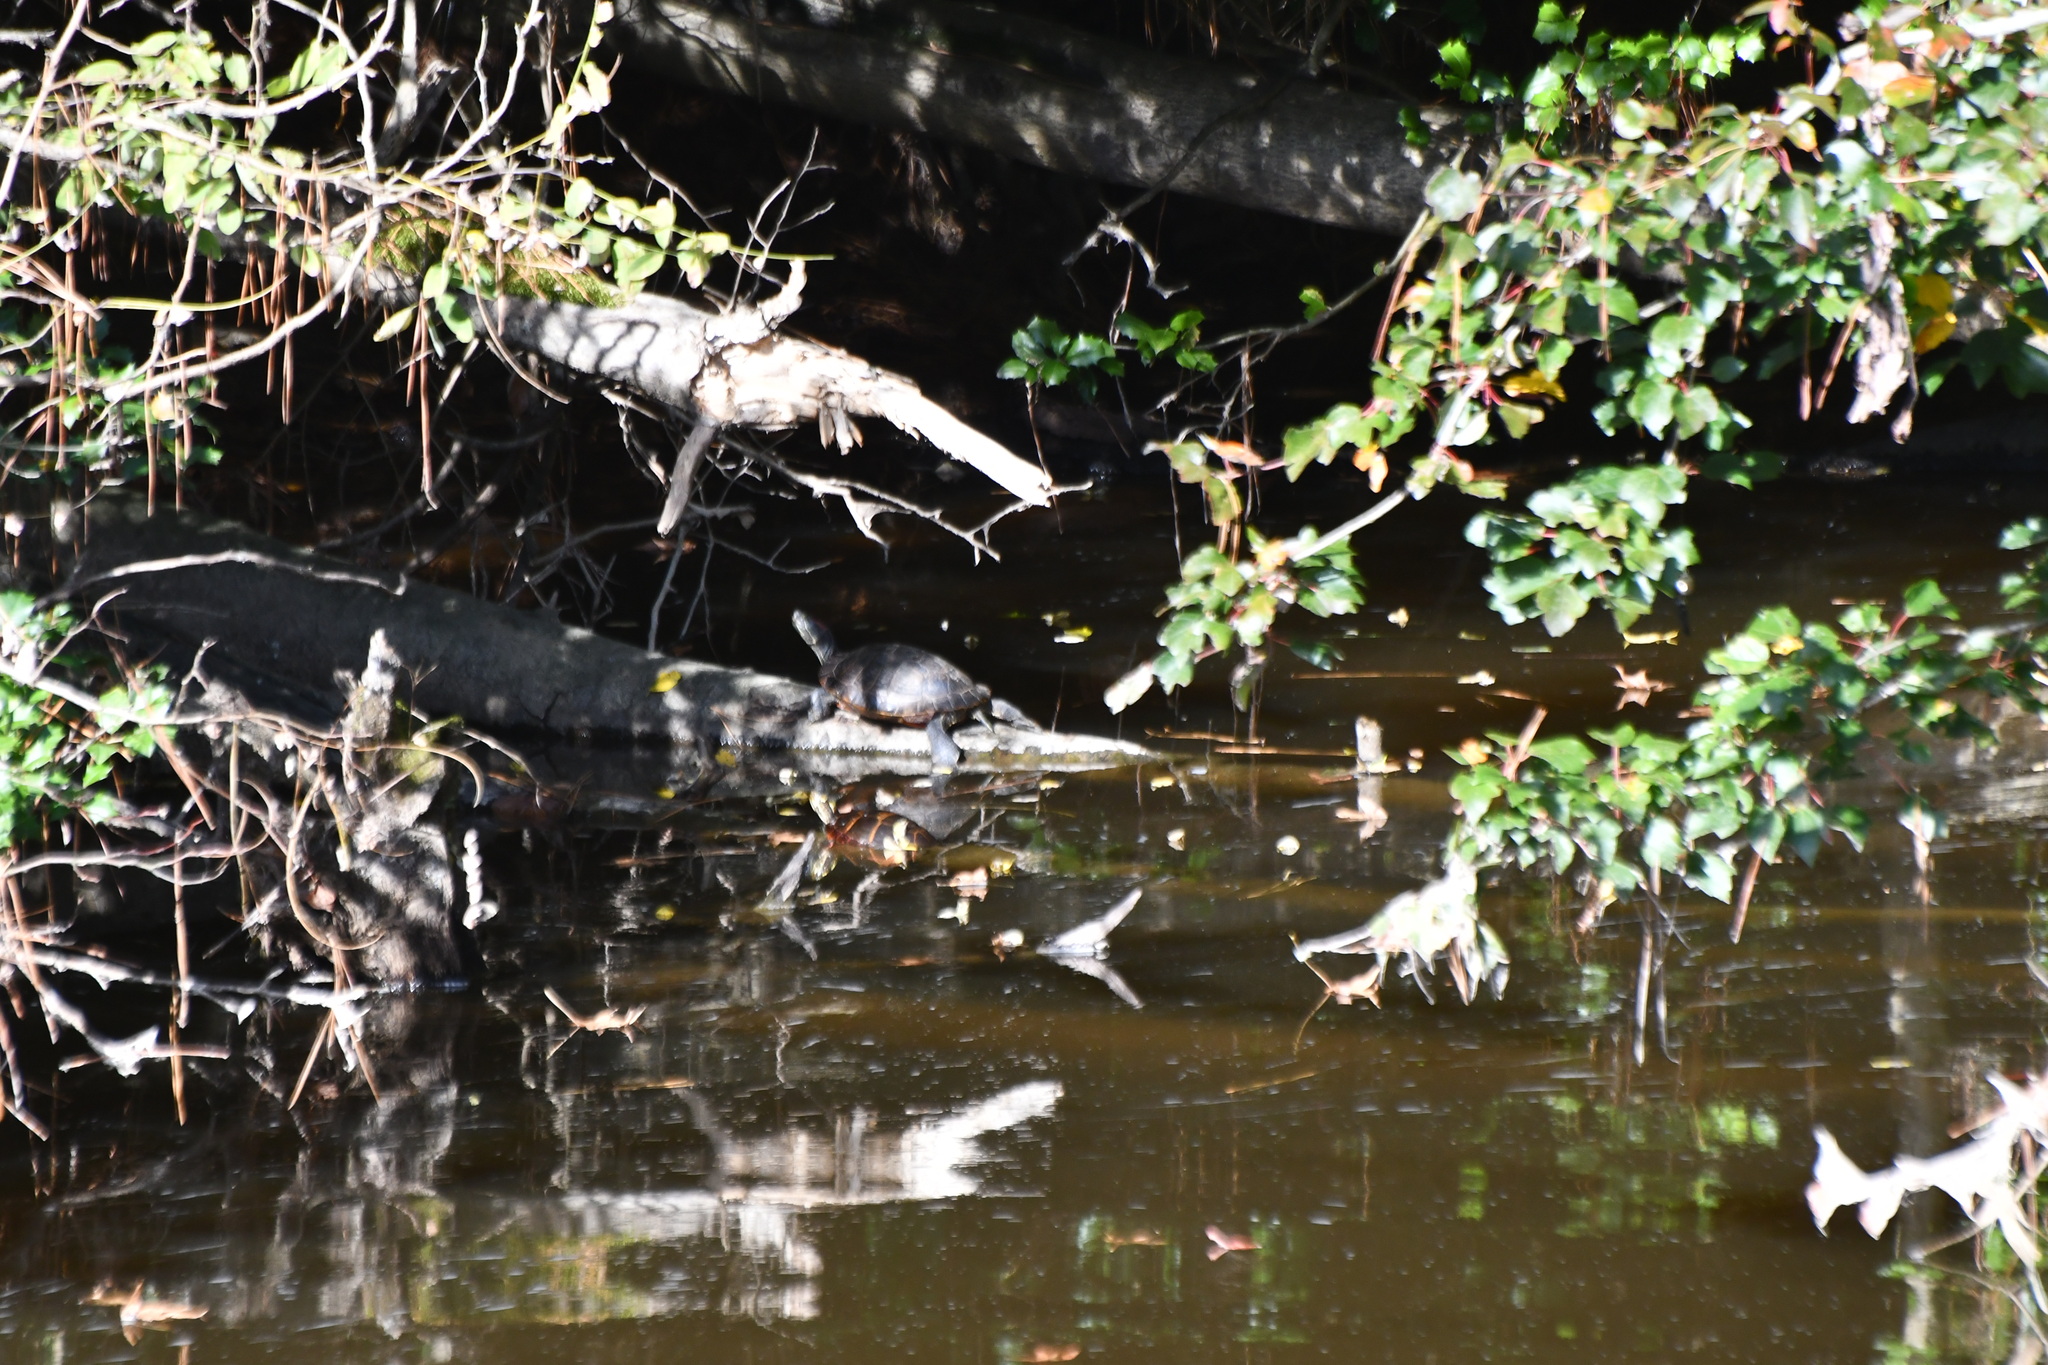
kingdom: Animalia
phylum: Chordata
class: Testudines
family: Emydidae
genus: Trachemys
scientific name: Trachemys scripta
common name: Slider
